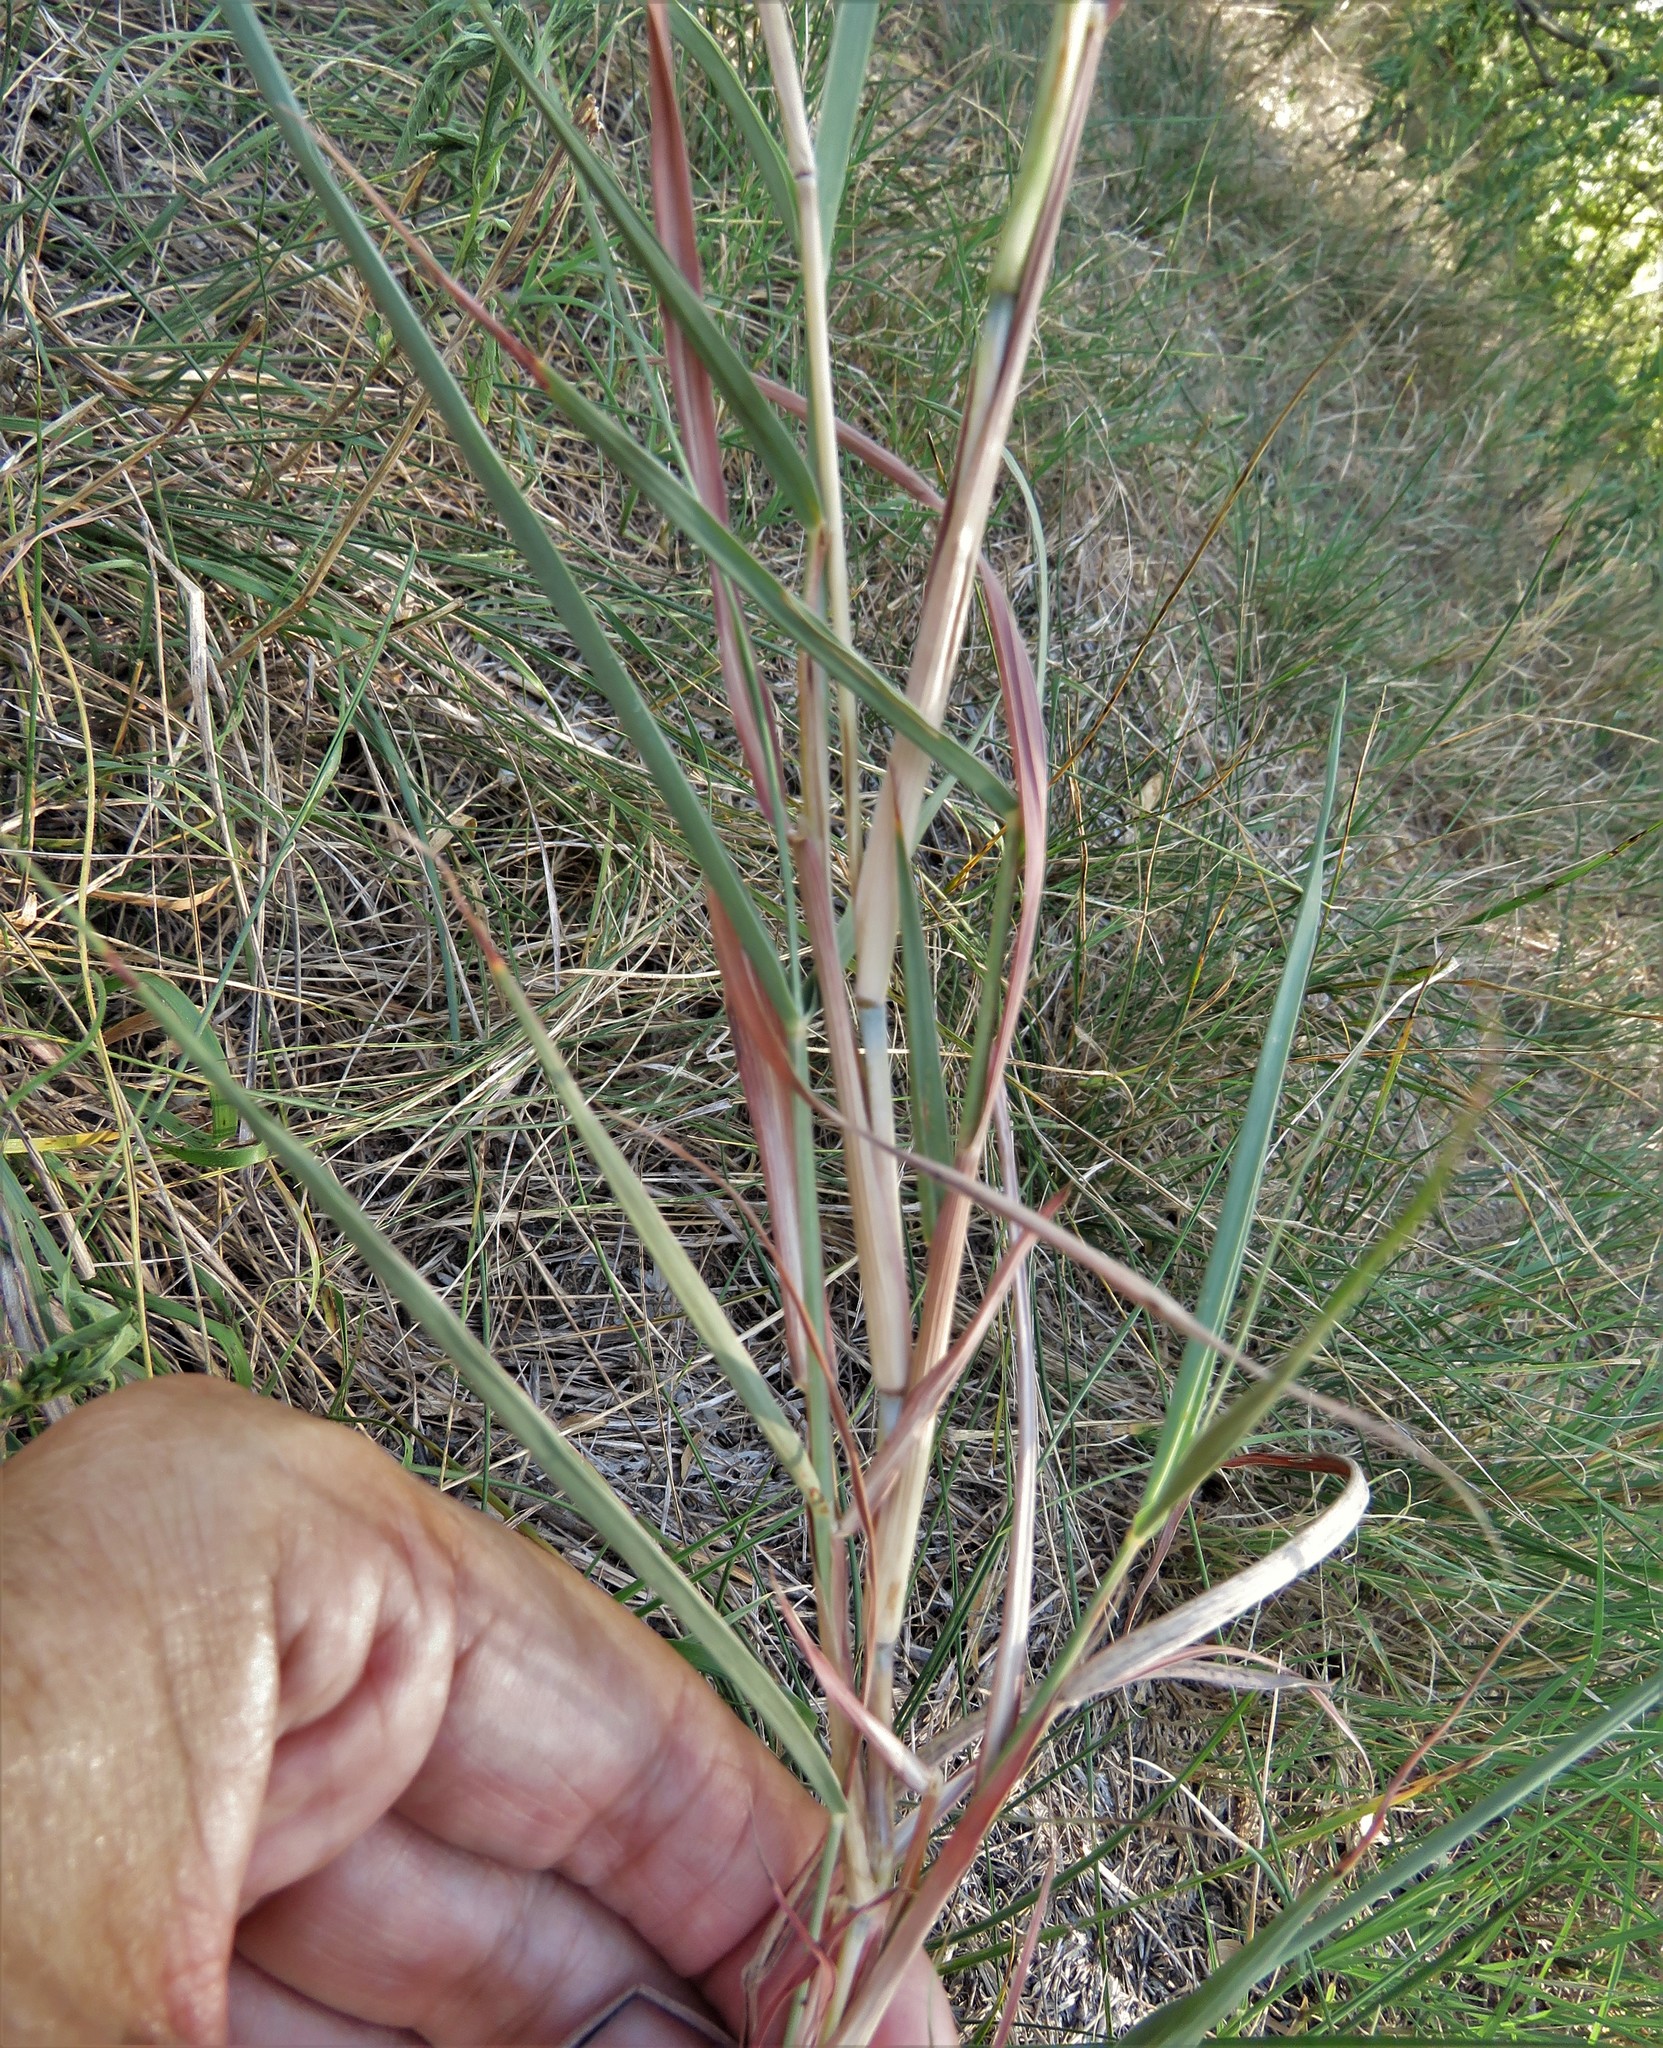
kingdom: Plantae
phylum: Tracheophyta
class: Liliopsida
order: Poales
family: Poaceae
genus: Bothriochloa
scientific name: Bothriochloa torreyana
